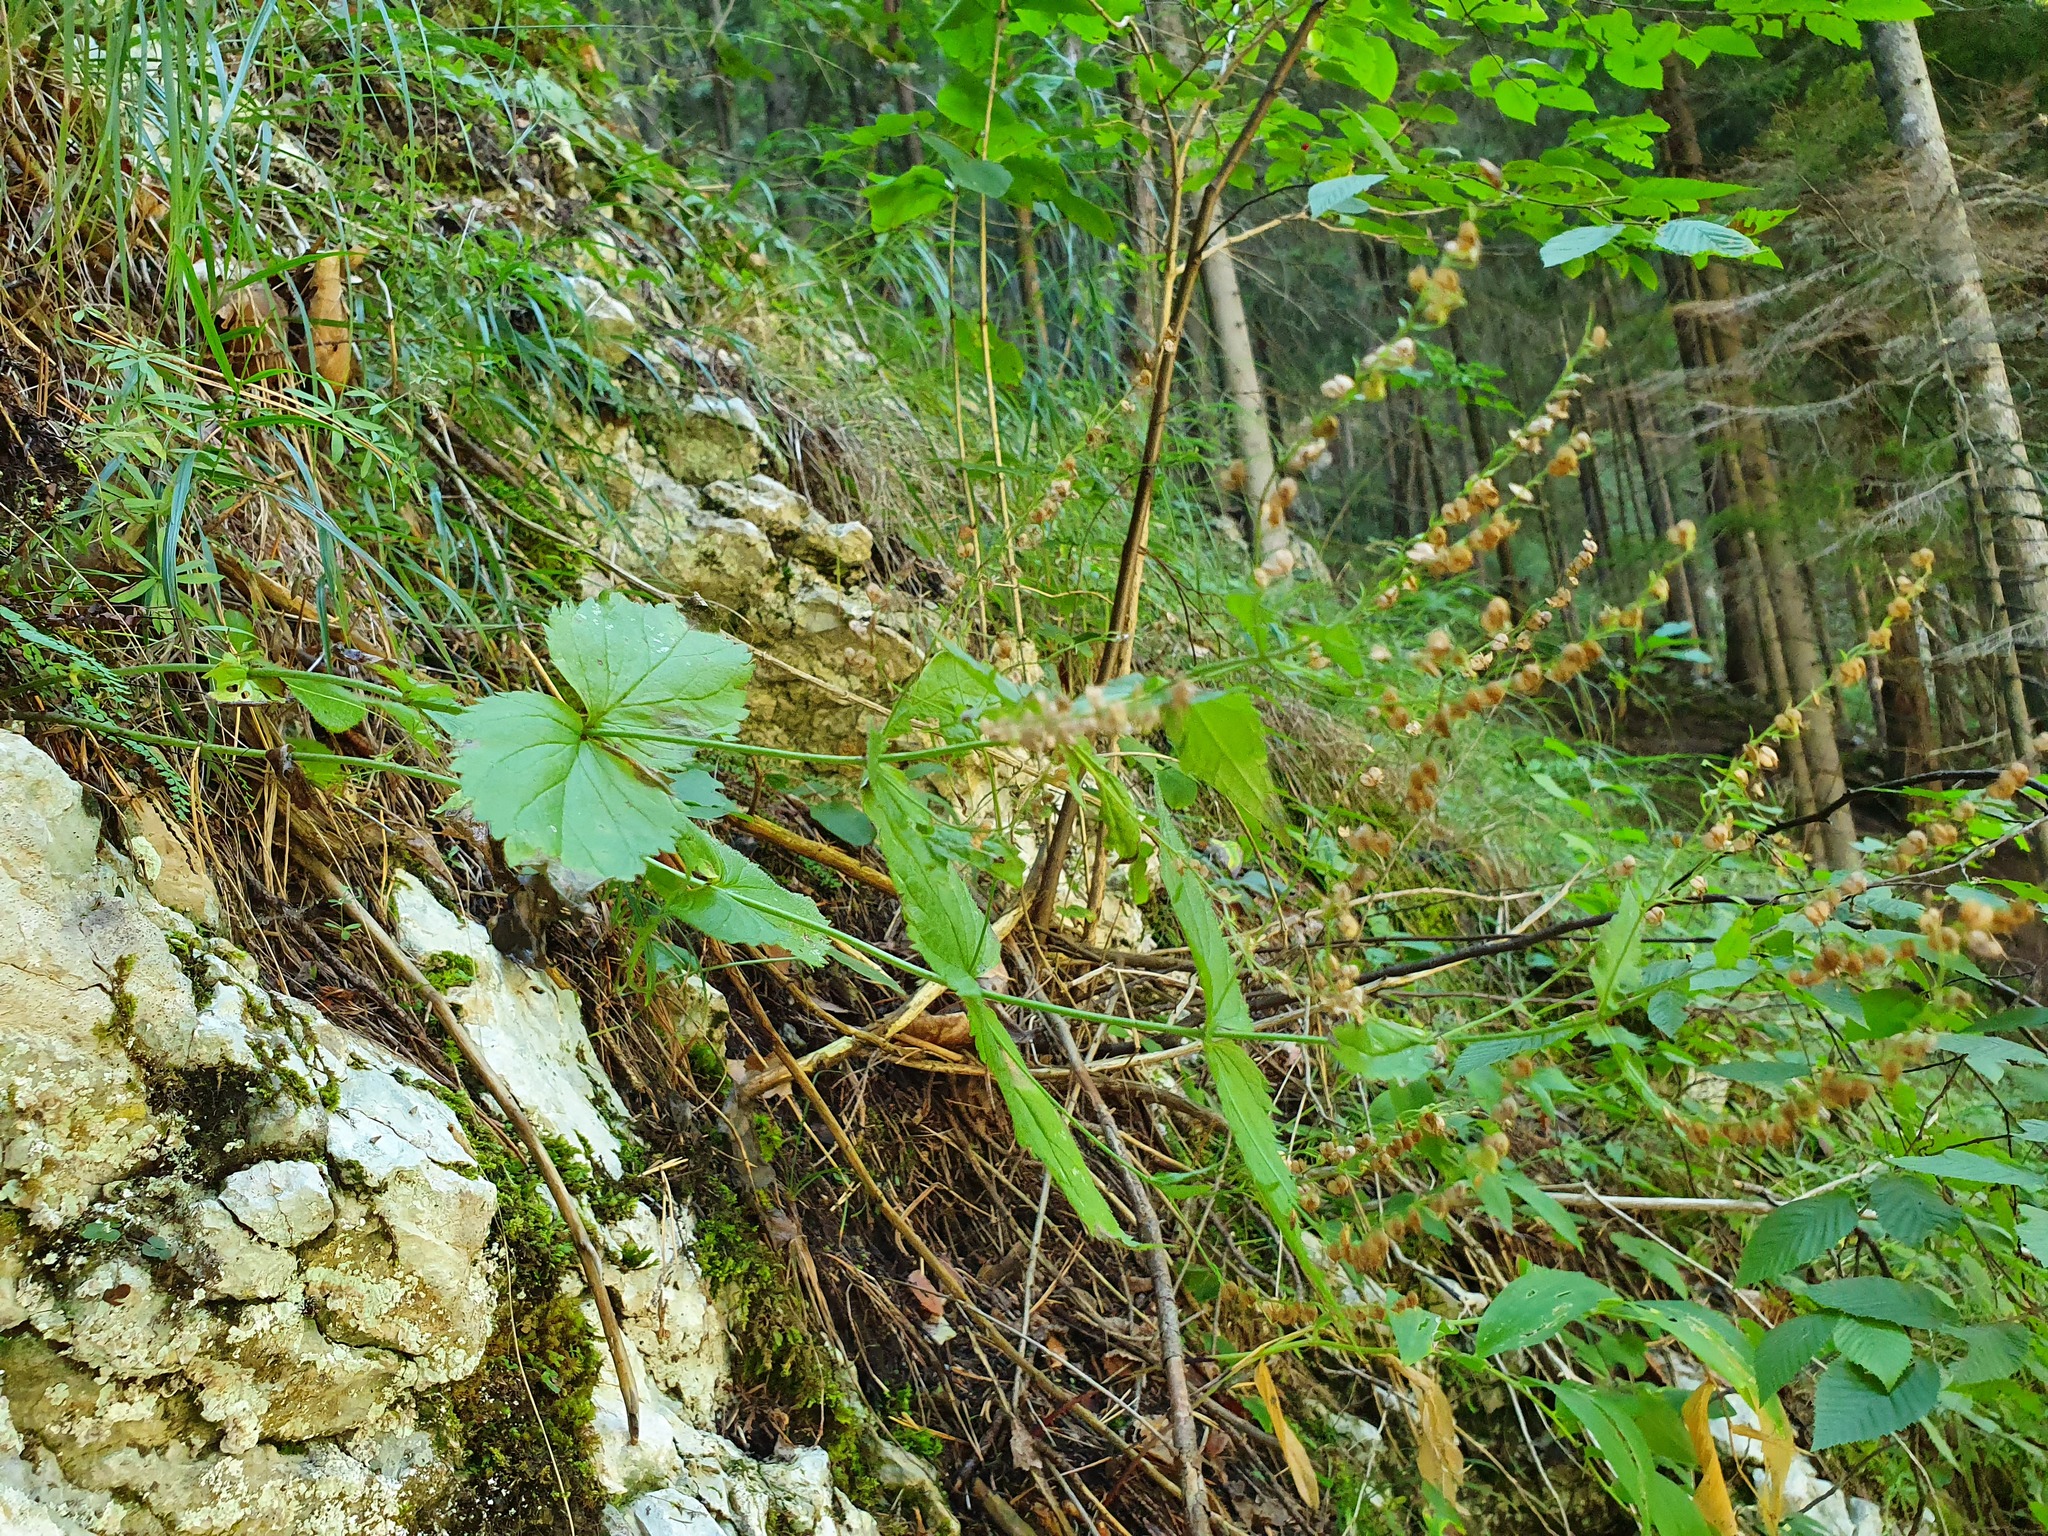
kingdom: Plantae
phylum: Tracheophyta
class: Magnoliopsida
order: Lamiales
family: Plantaginaceae
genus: Veronica
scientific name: Veronica urticifolia
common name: Nettle-leaf speedwell
